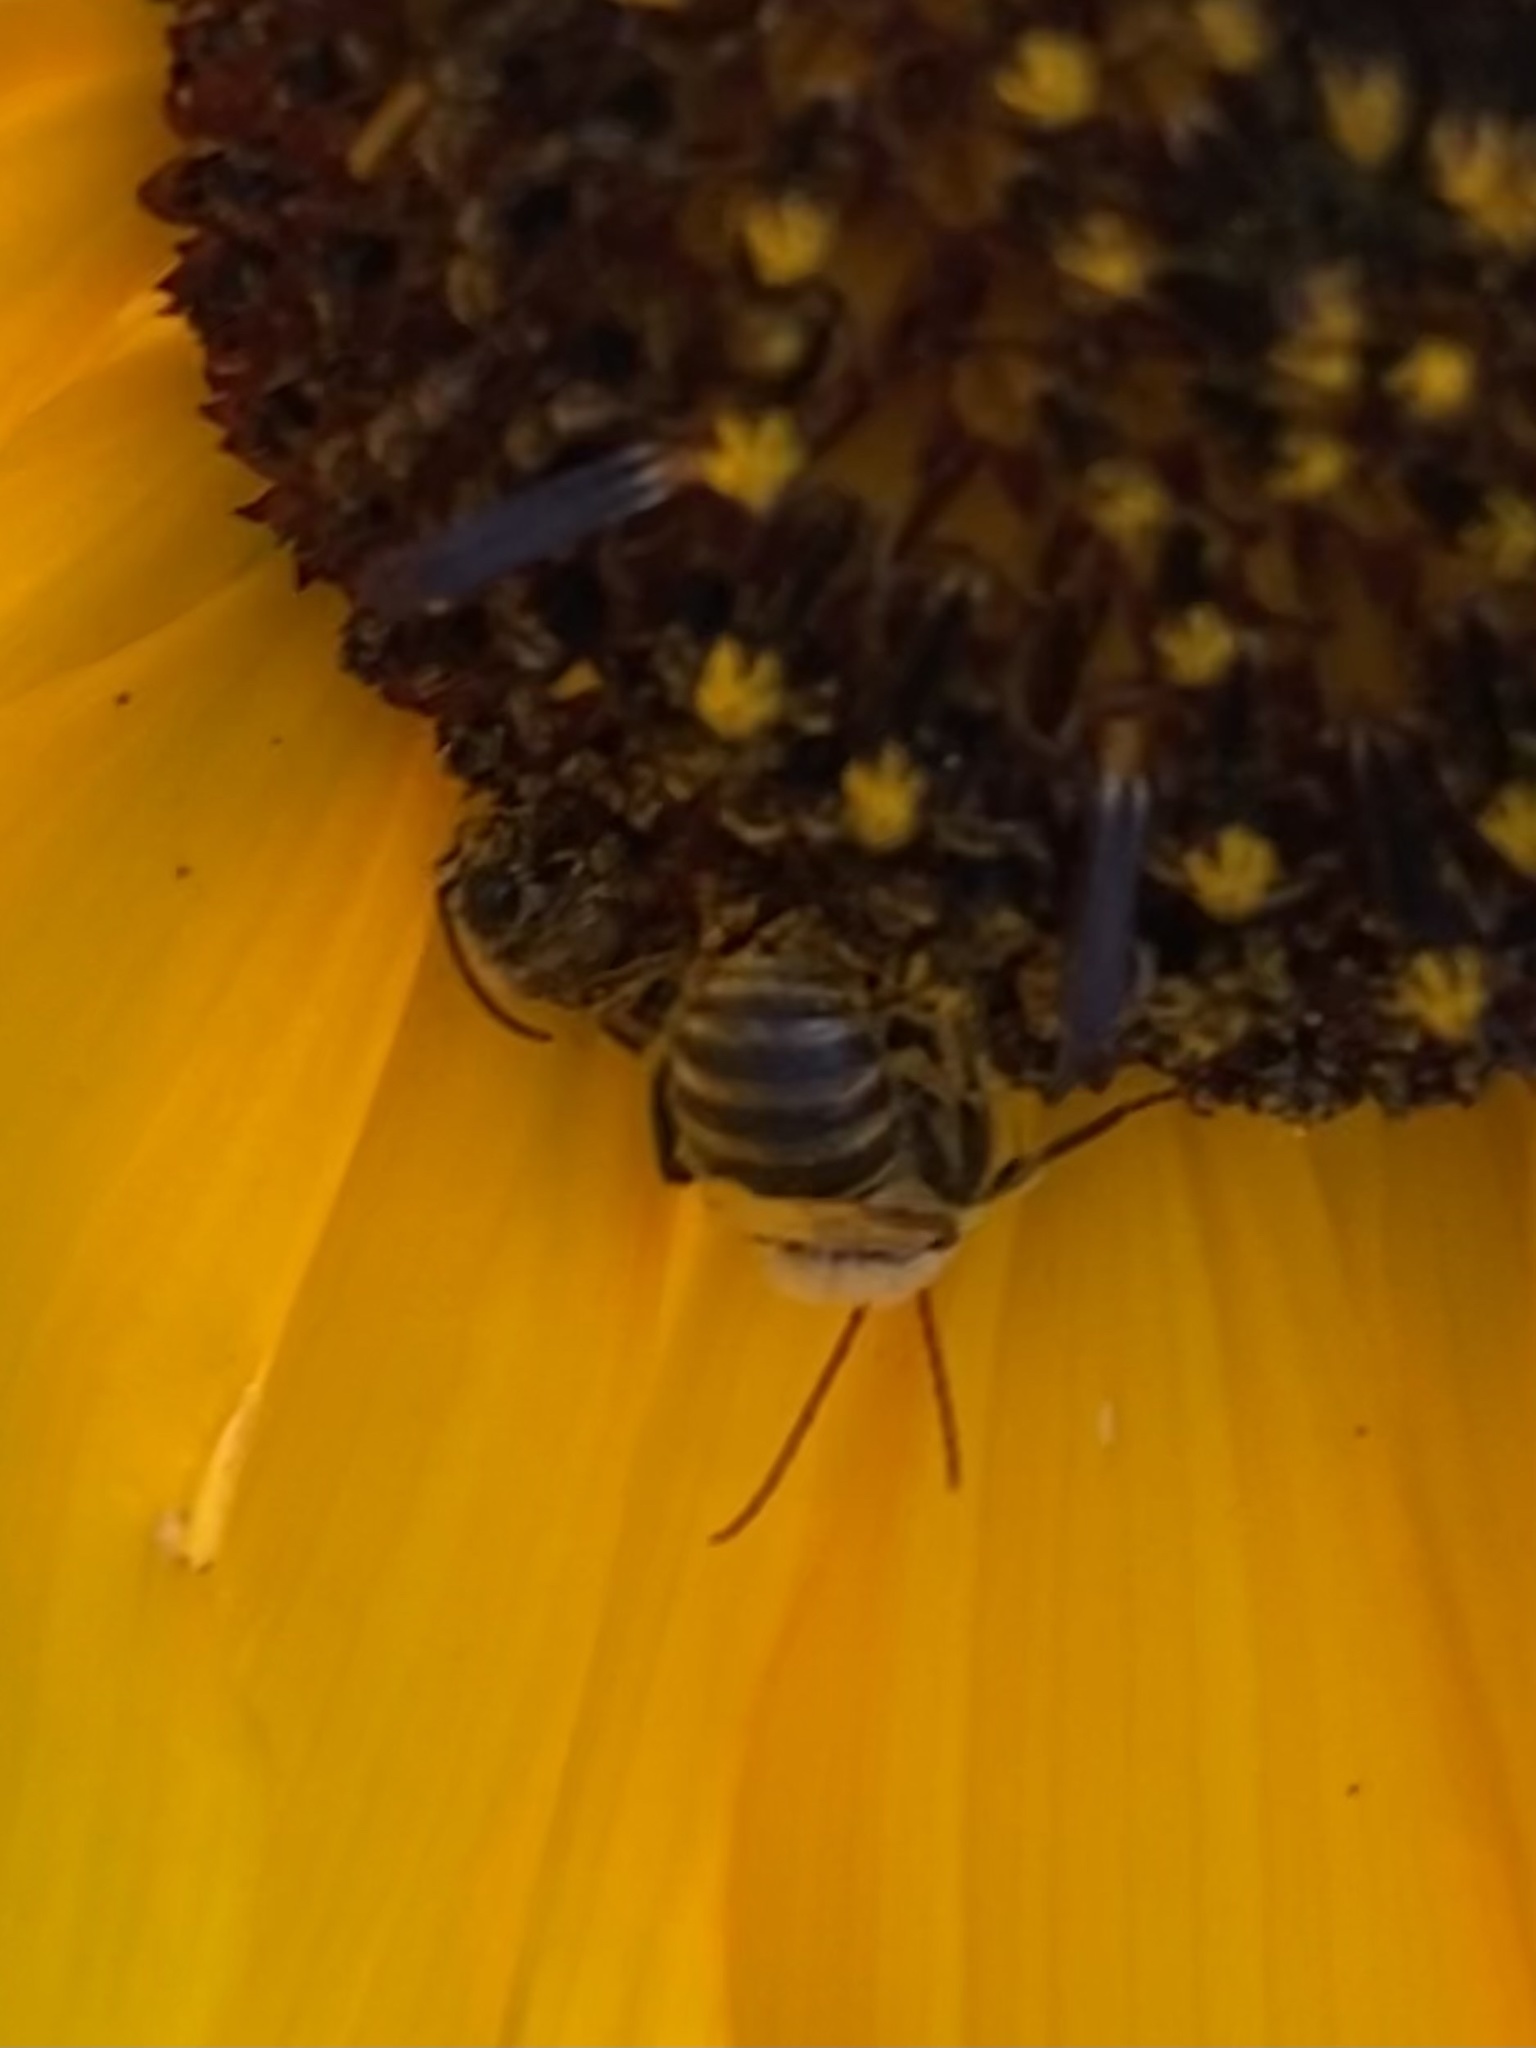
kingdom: Animalia
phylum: Arthropoda
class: Insecta
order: Hymenoptera
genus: Eumelissodes
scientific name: Eumelissodes
